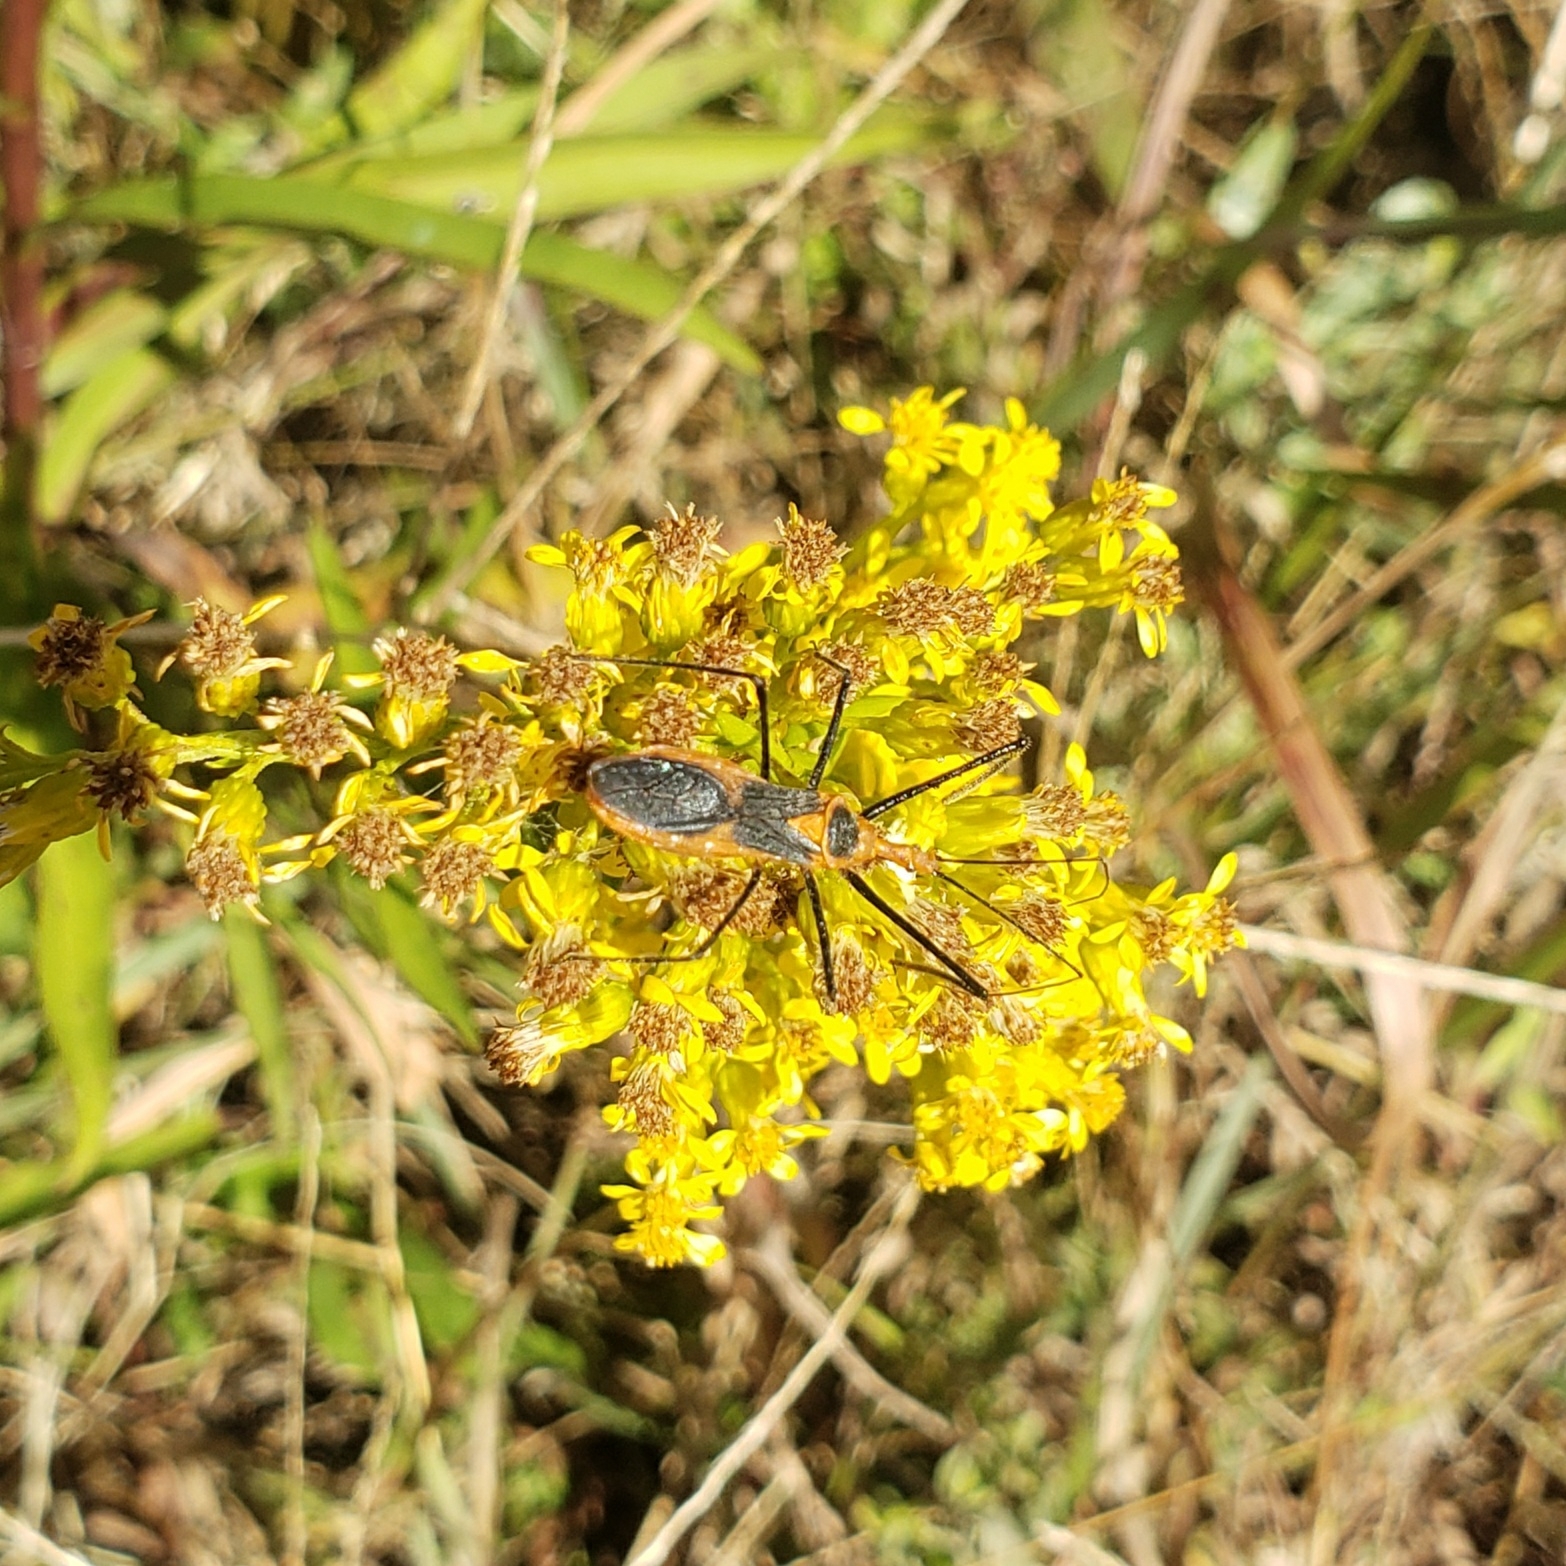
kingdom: Animalia
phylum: Arthropoda
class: Insecta
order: Hemiptera
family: Reduviidae
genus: Zelus
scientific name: Zelus longipes
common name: Milkweed assassin bug
